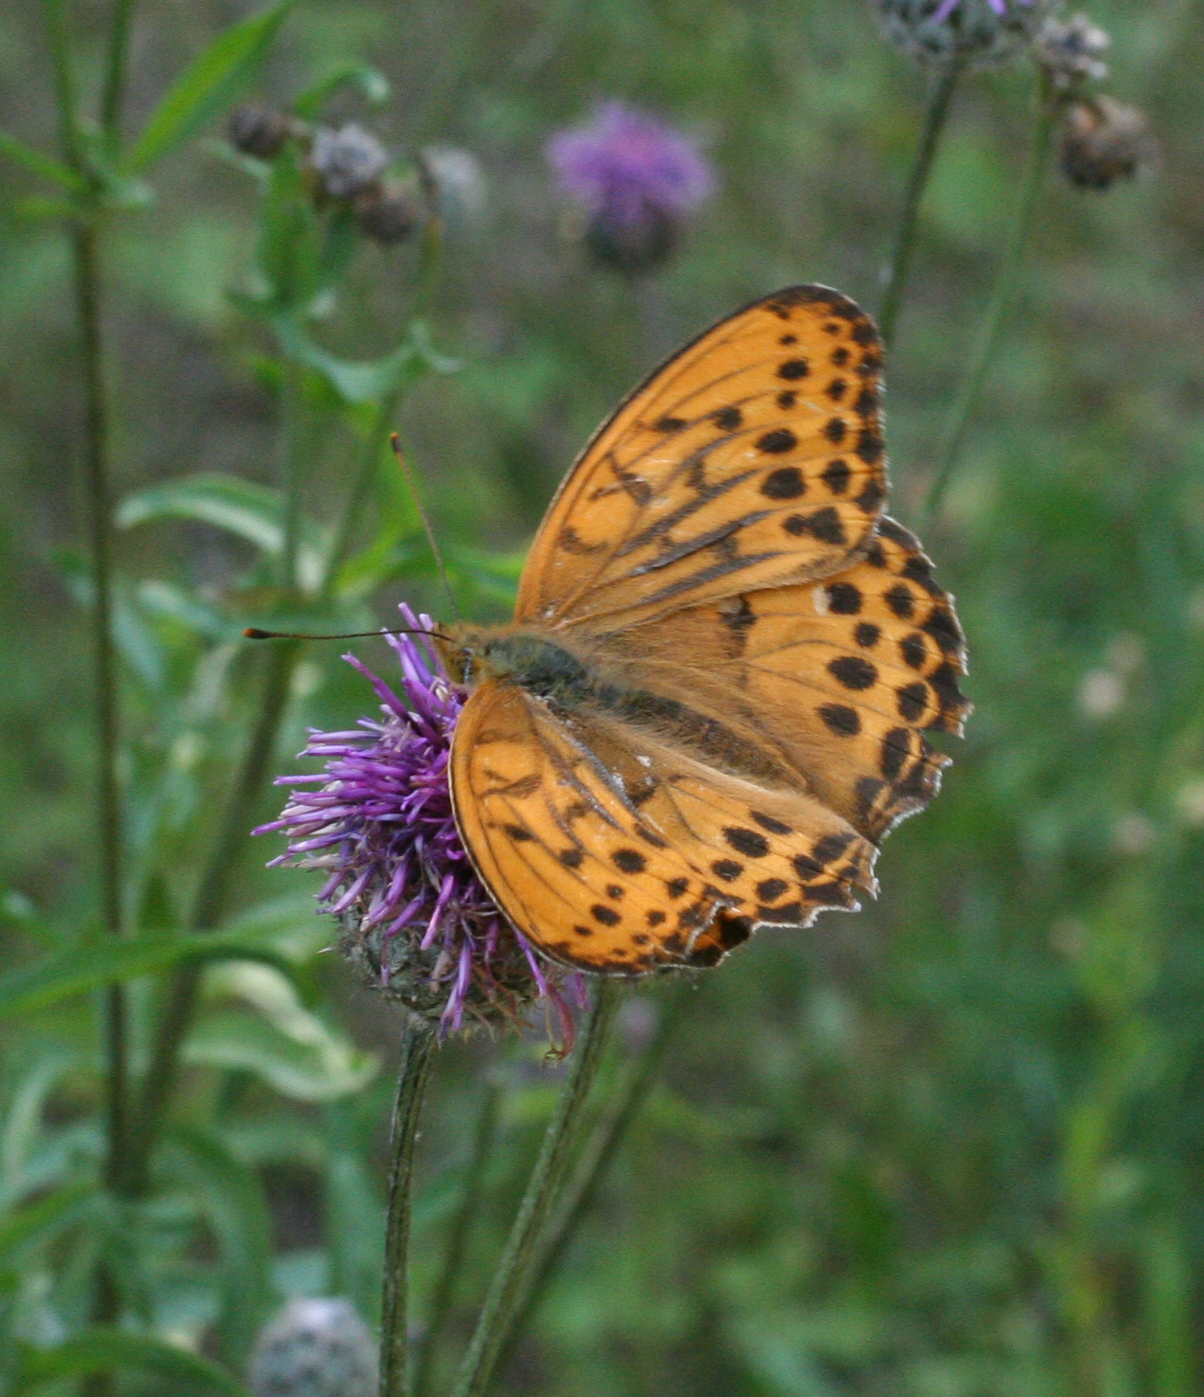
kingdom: Animalia
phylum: Arthropoda
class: Insecta
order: Lepidoptera
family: Nymphalidae
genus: Damora
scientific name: Damora sagana
